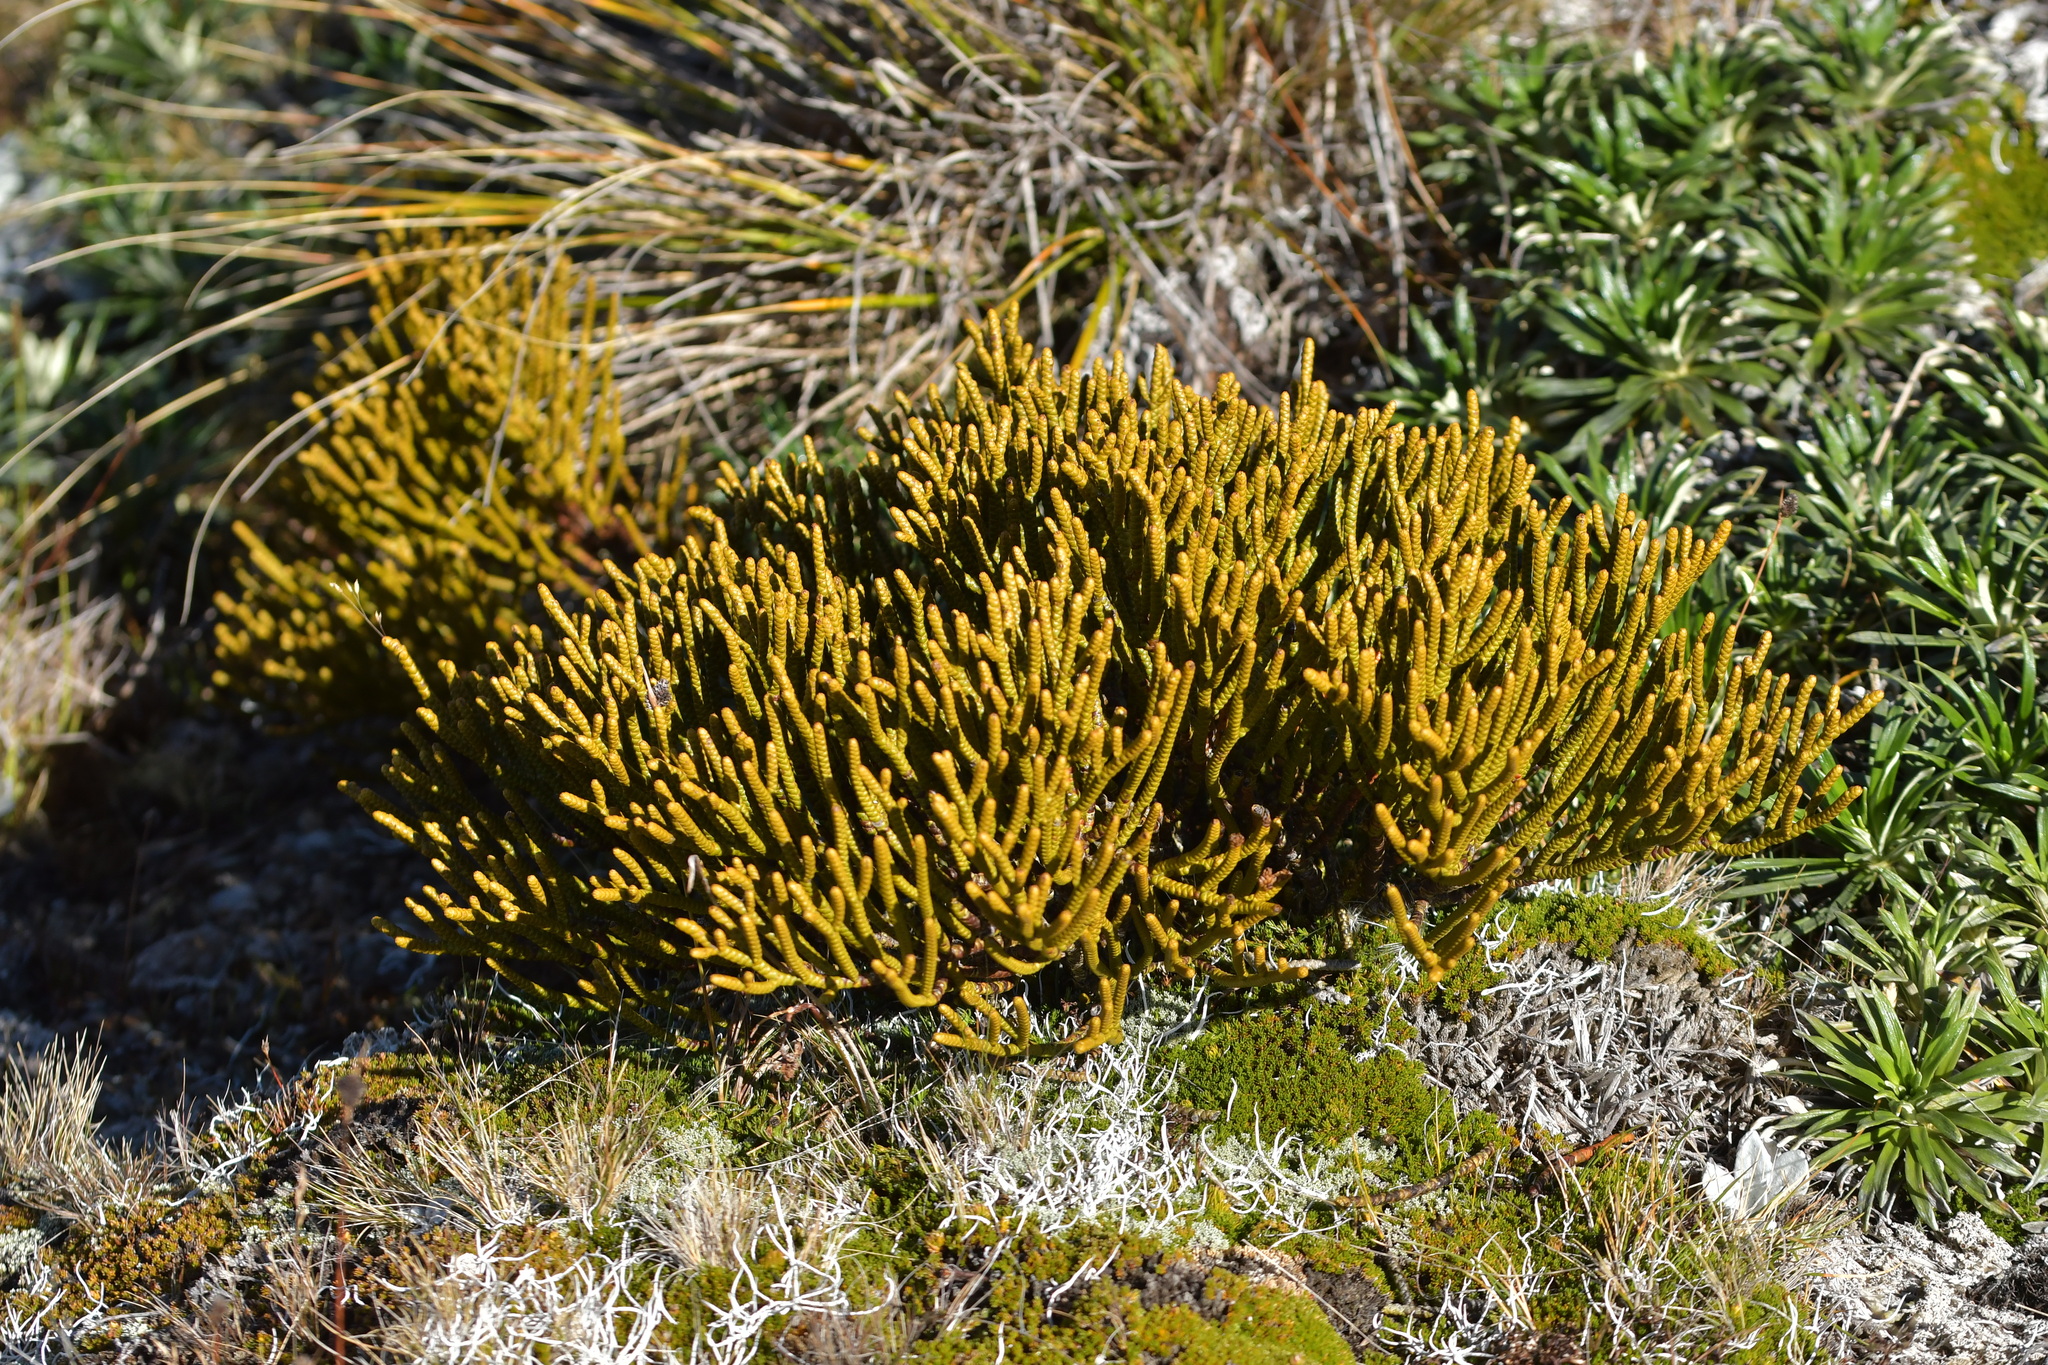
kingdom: Plantae
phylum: Tracheophyta
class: Magnoliopsida
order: Lamiales
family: Plantaginaceae
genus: Veronica
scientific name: Veronica hectorii
